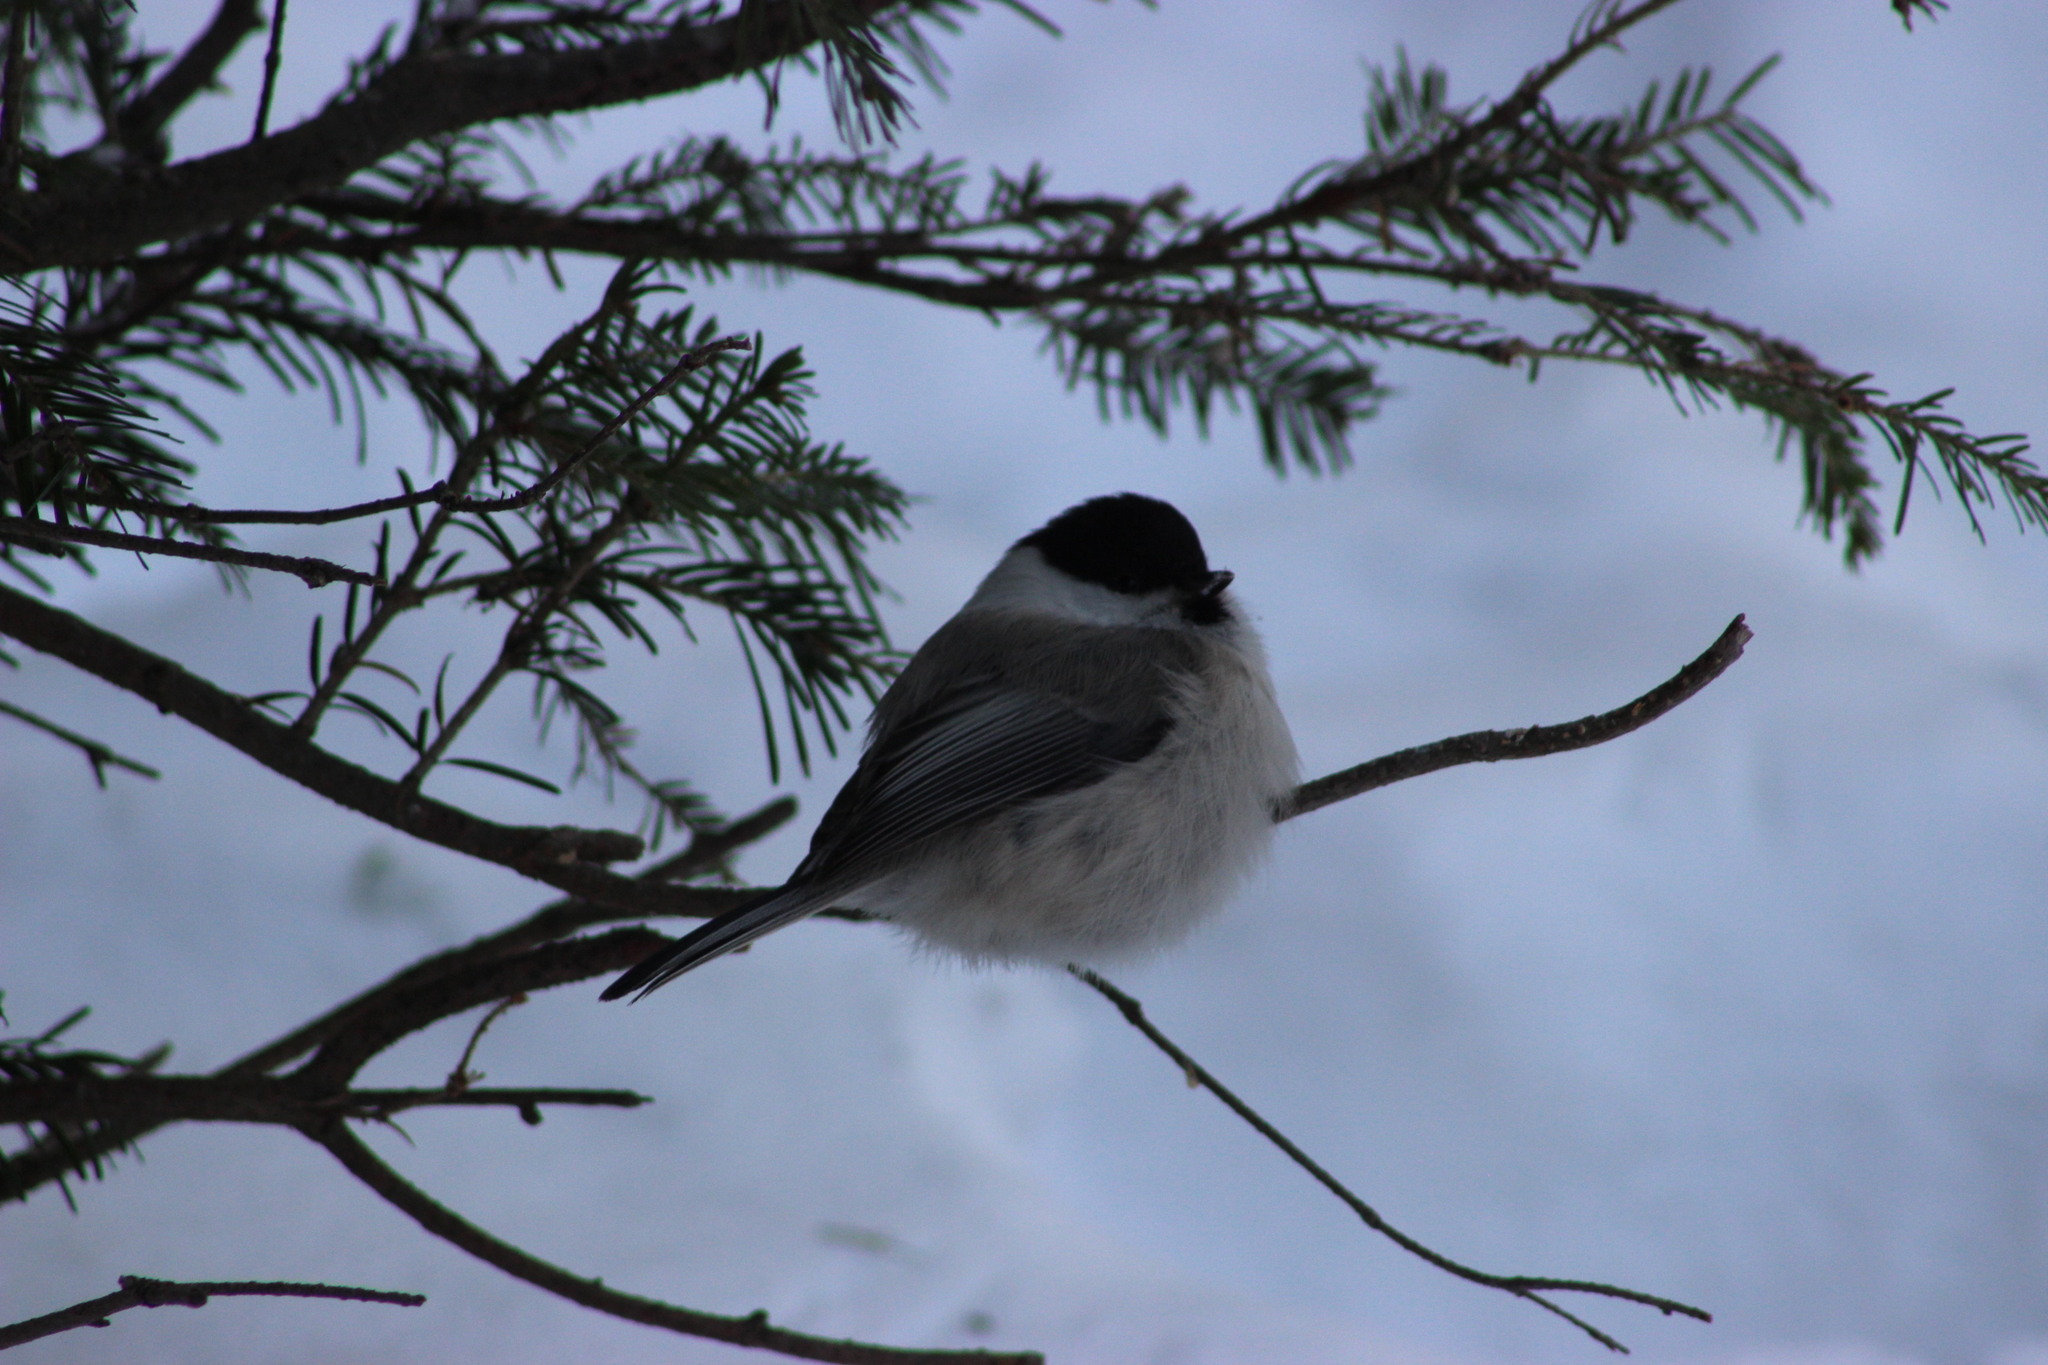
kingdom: Animalia
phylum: Chordata
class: Aves
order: Passeriformes
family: Paridae
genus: Poecile
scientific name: Poecile montanus
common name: Willow tit
